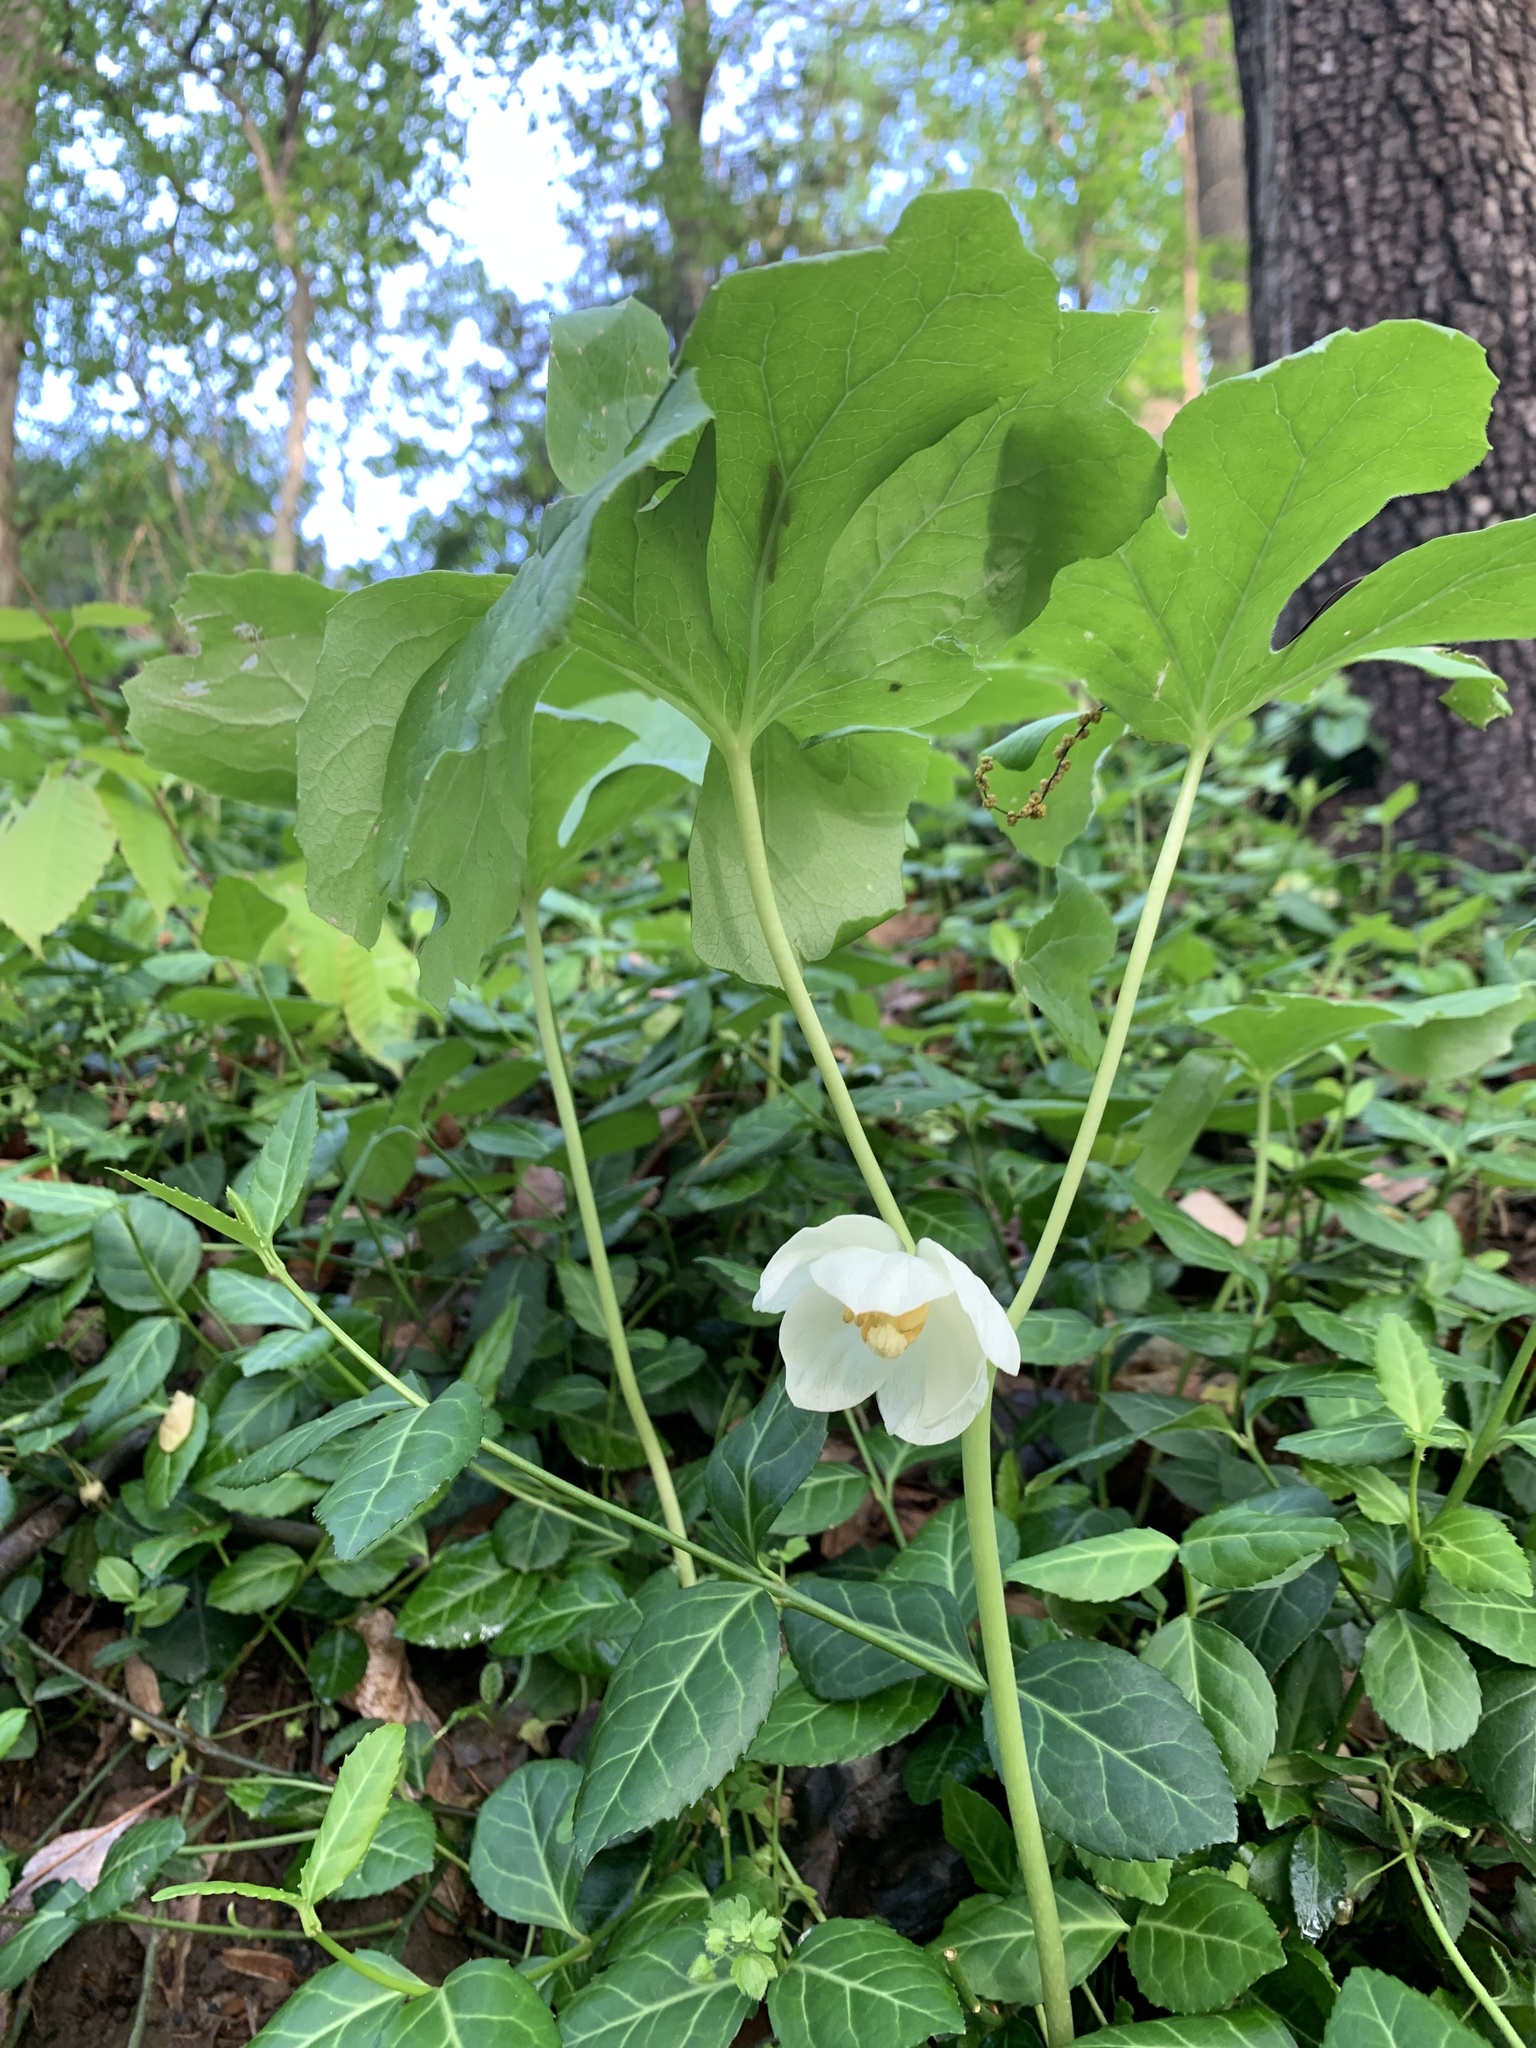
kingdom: Plantae
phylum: Tracheophyta
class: Magnoliopsida
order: Ranunculales
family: Berberidaceae
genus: Podophyllum
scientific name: Podophyllum peltatum
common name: Wild mandrake
